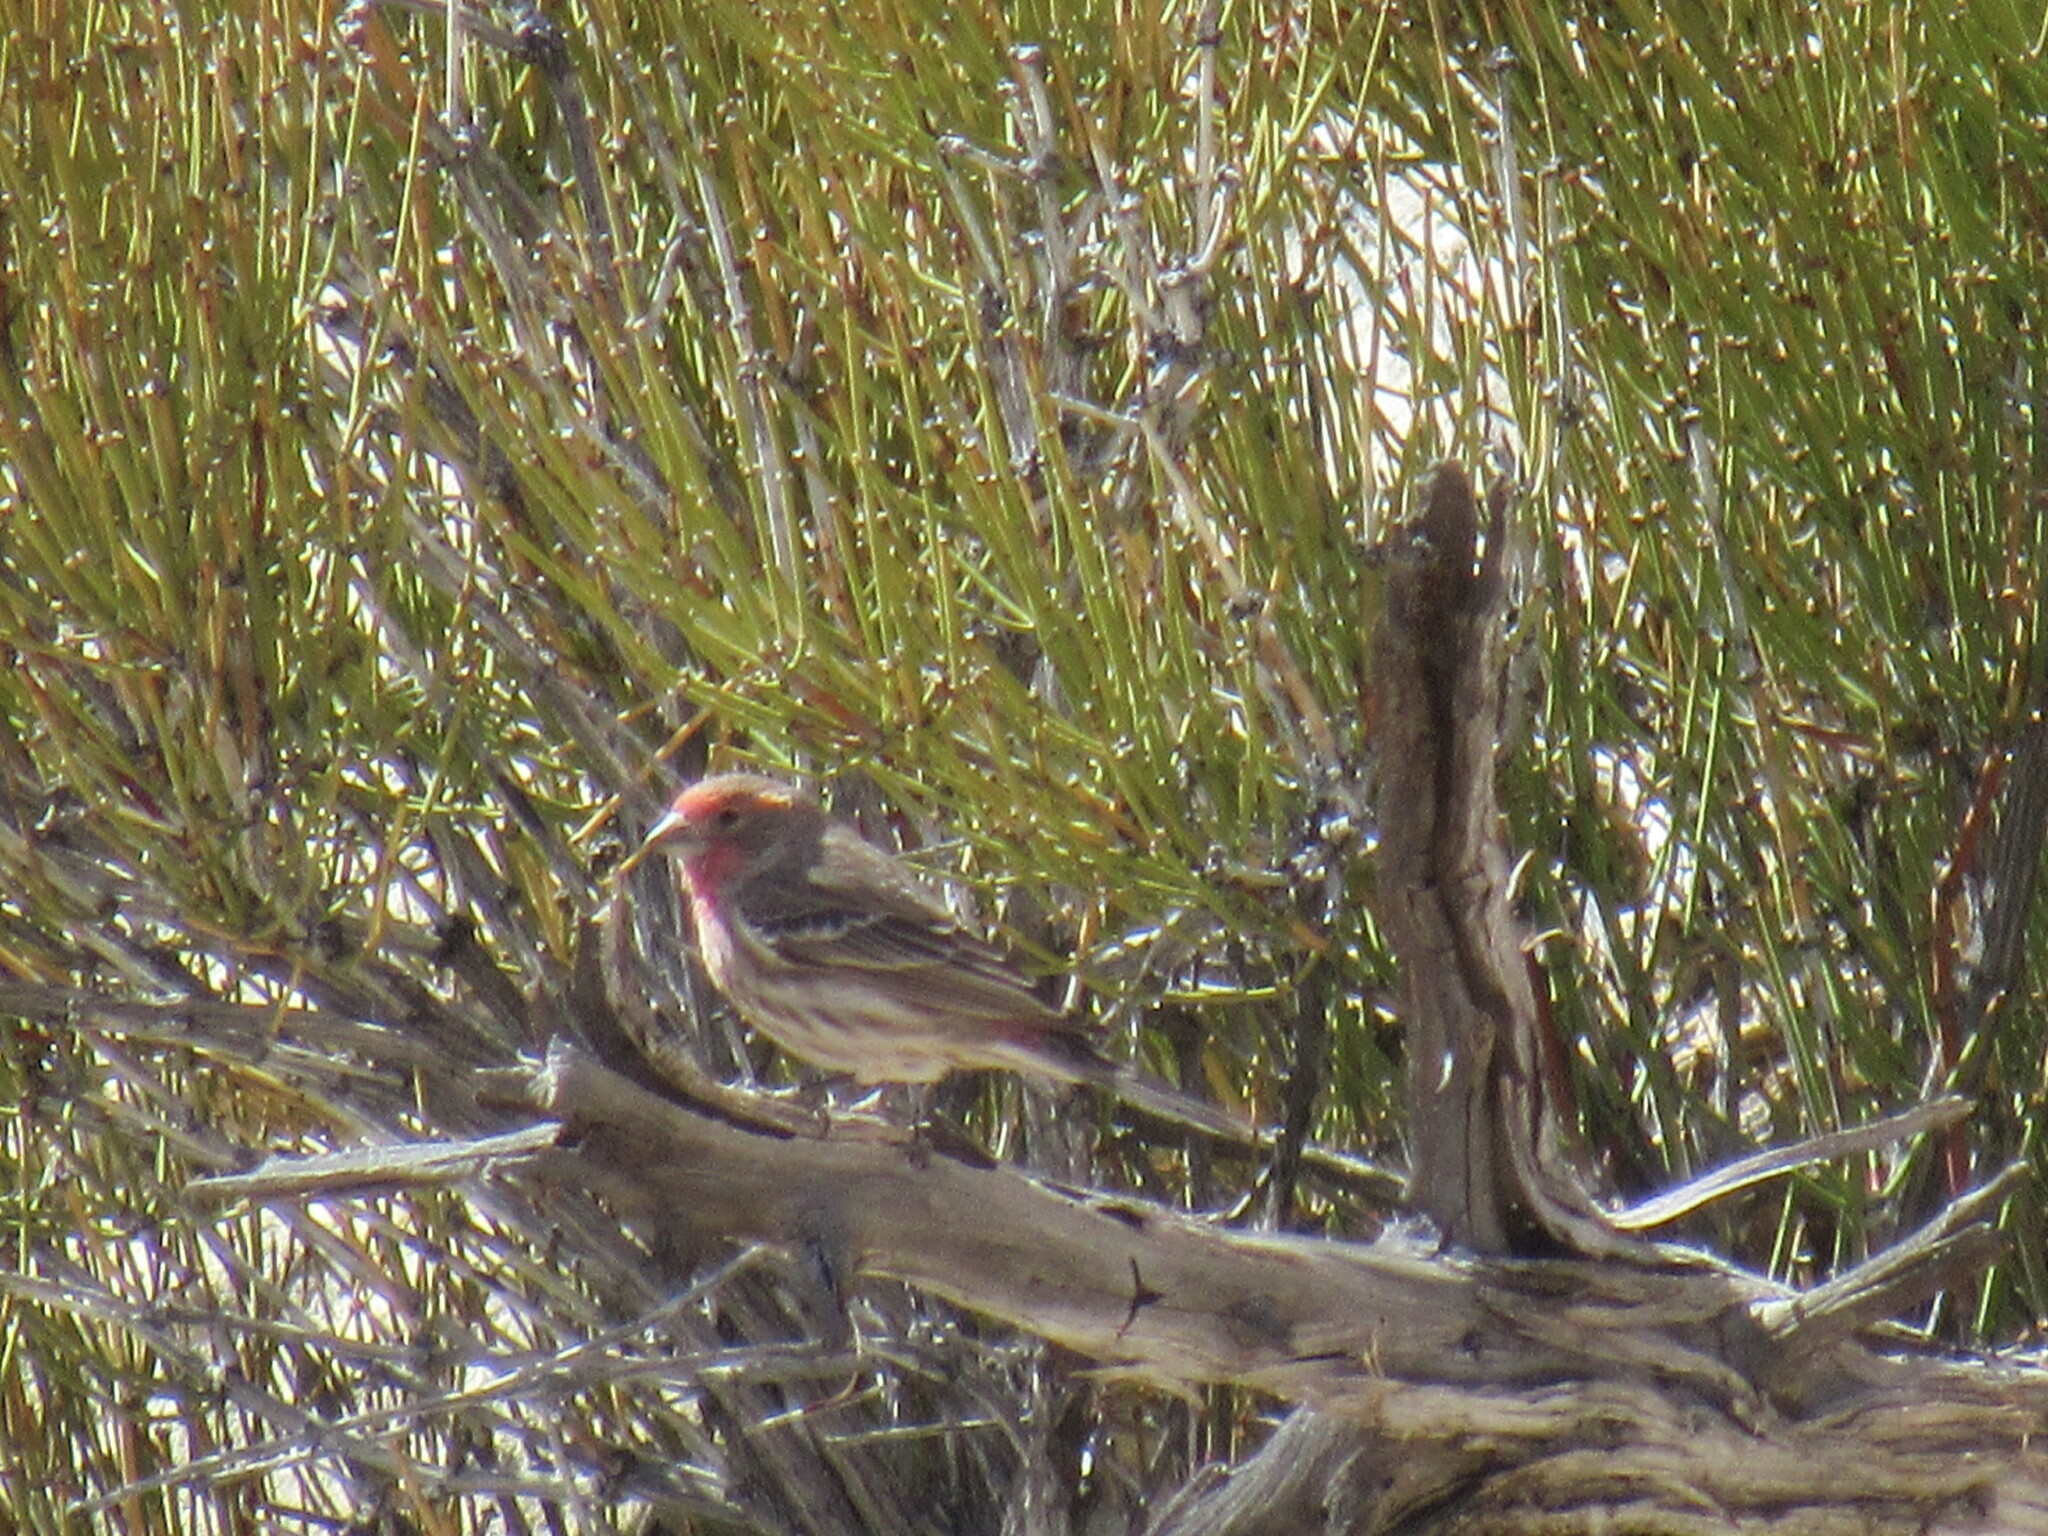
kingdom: Animalia
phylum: Chordata
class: Aves
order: Passeriformes
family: Fringillidae
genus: Haemorhous
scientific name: Haemorhous mexicanus
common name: House finch
